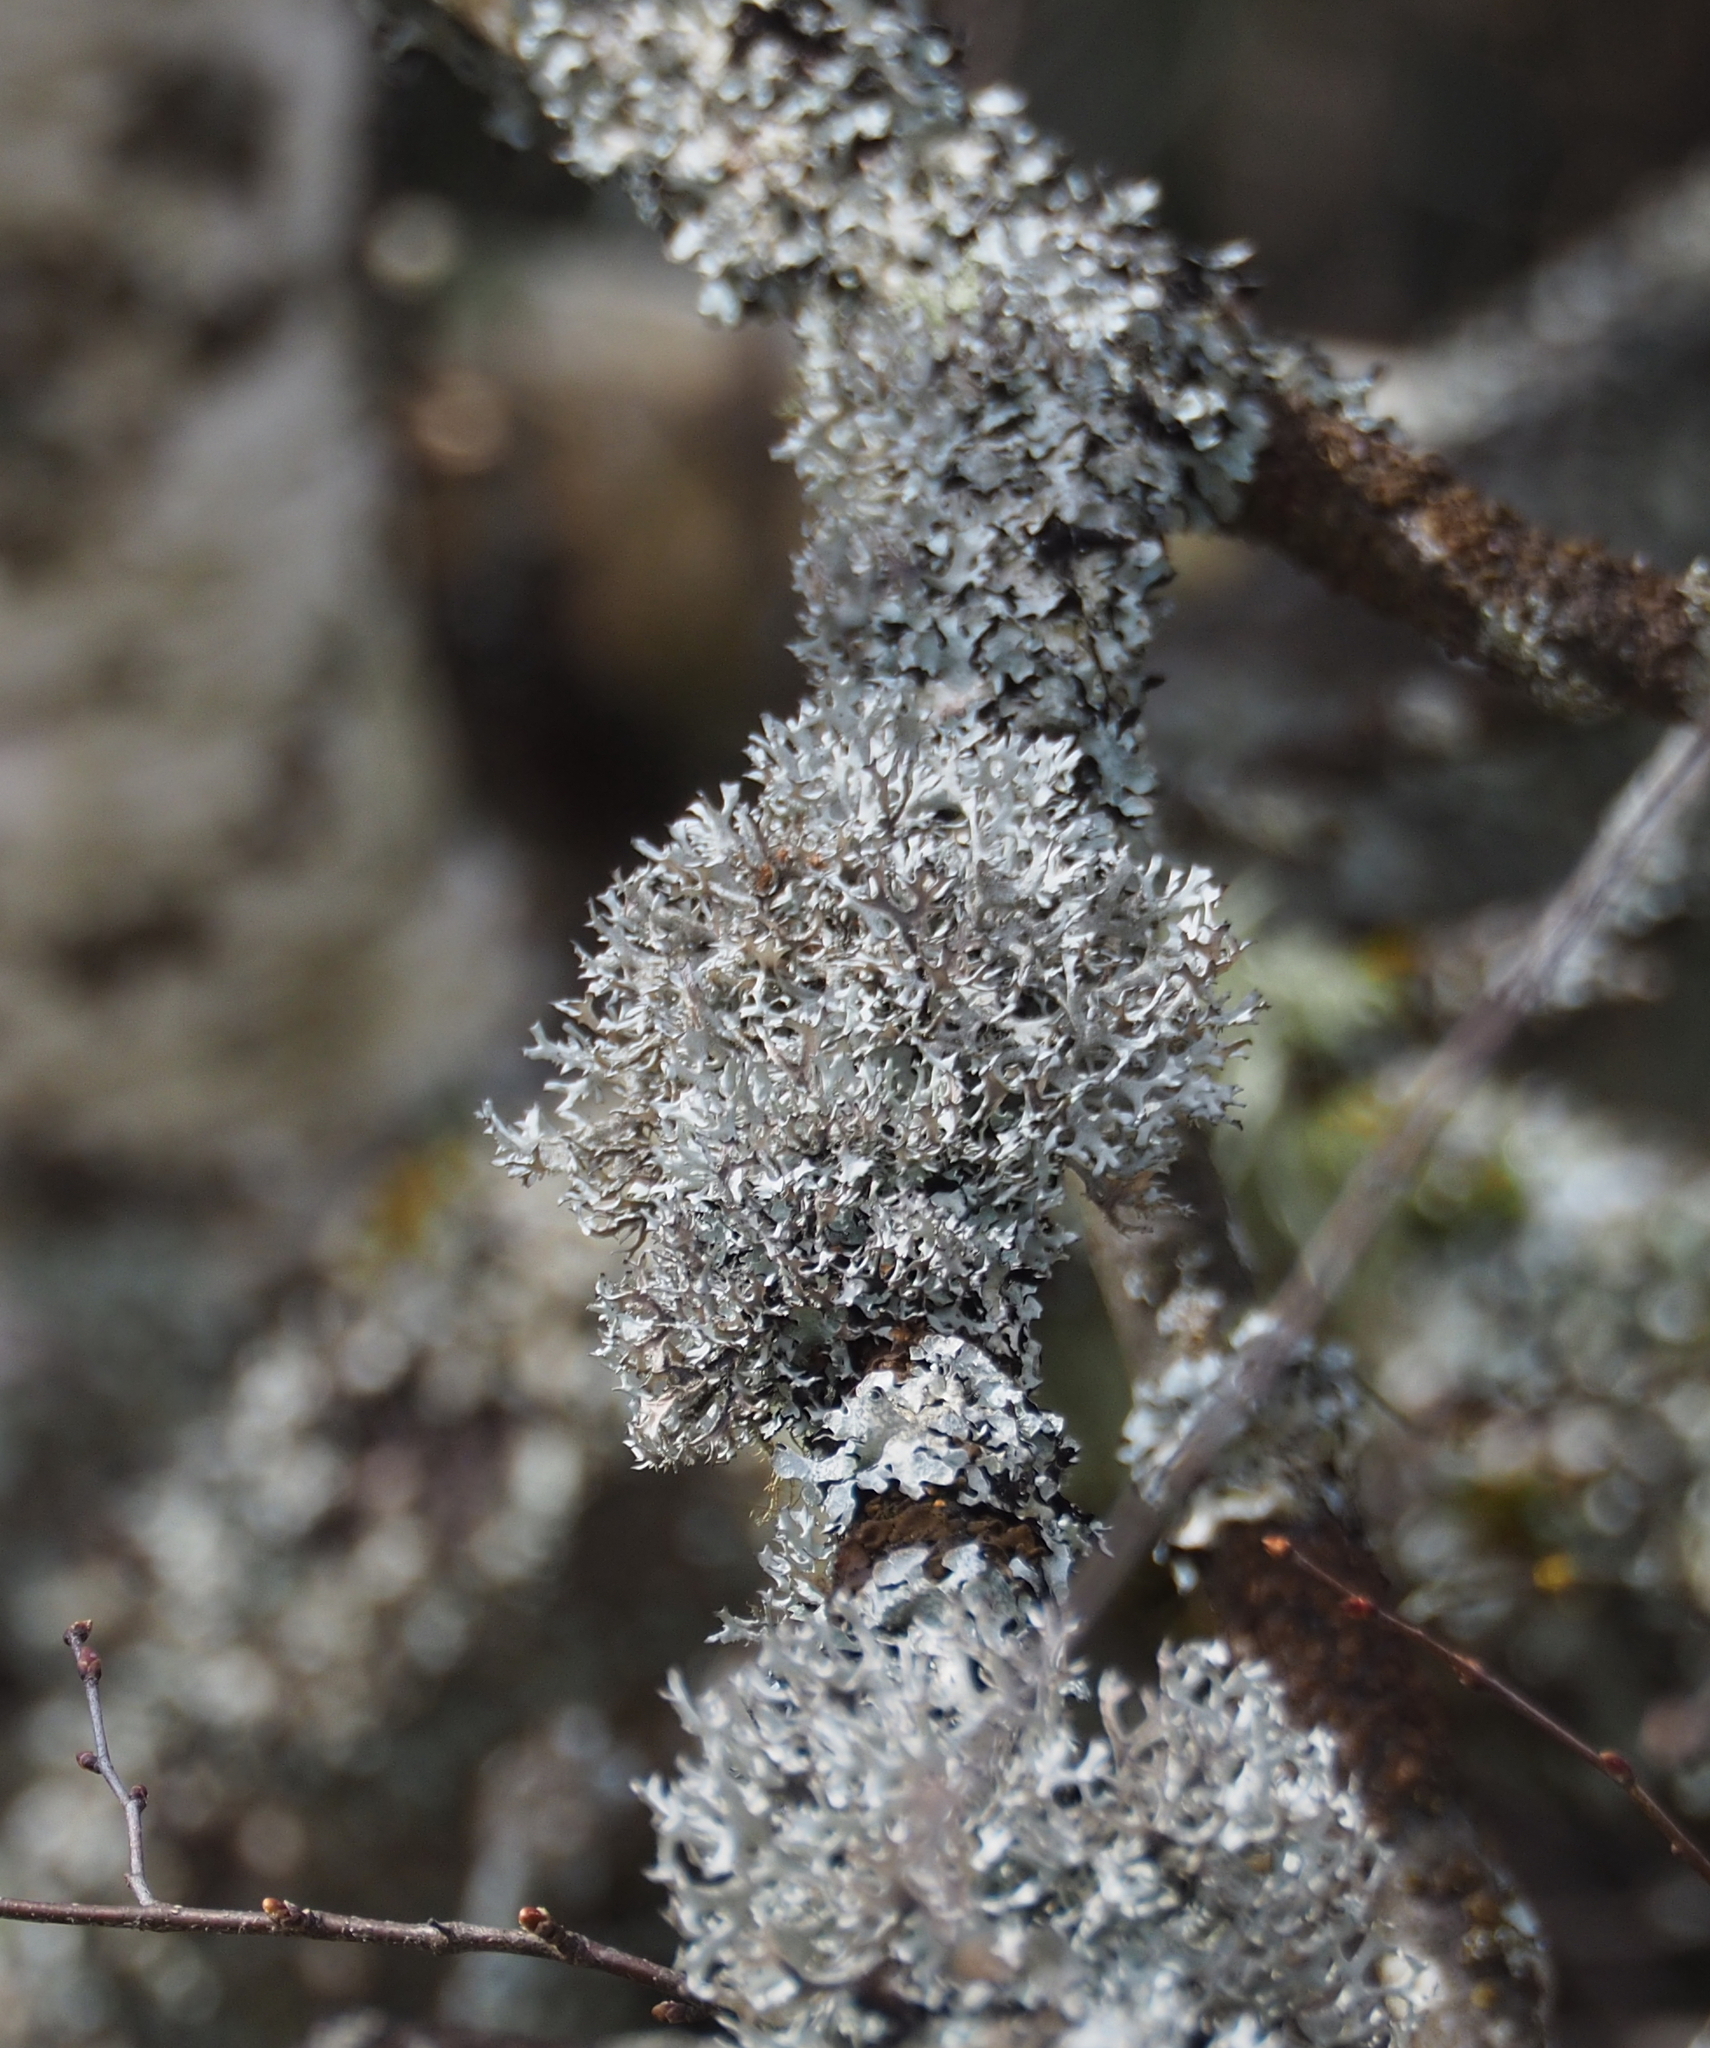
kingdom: Fungi
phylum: Ascomycota
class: Lecanoromycetes
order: Lecanorales
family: Parmeliaceae
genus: Pseudevernia
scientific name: Pseudevernia furfuracea
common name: Tree moss
